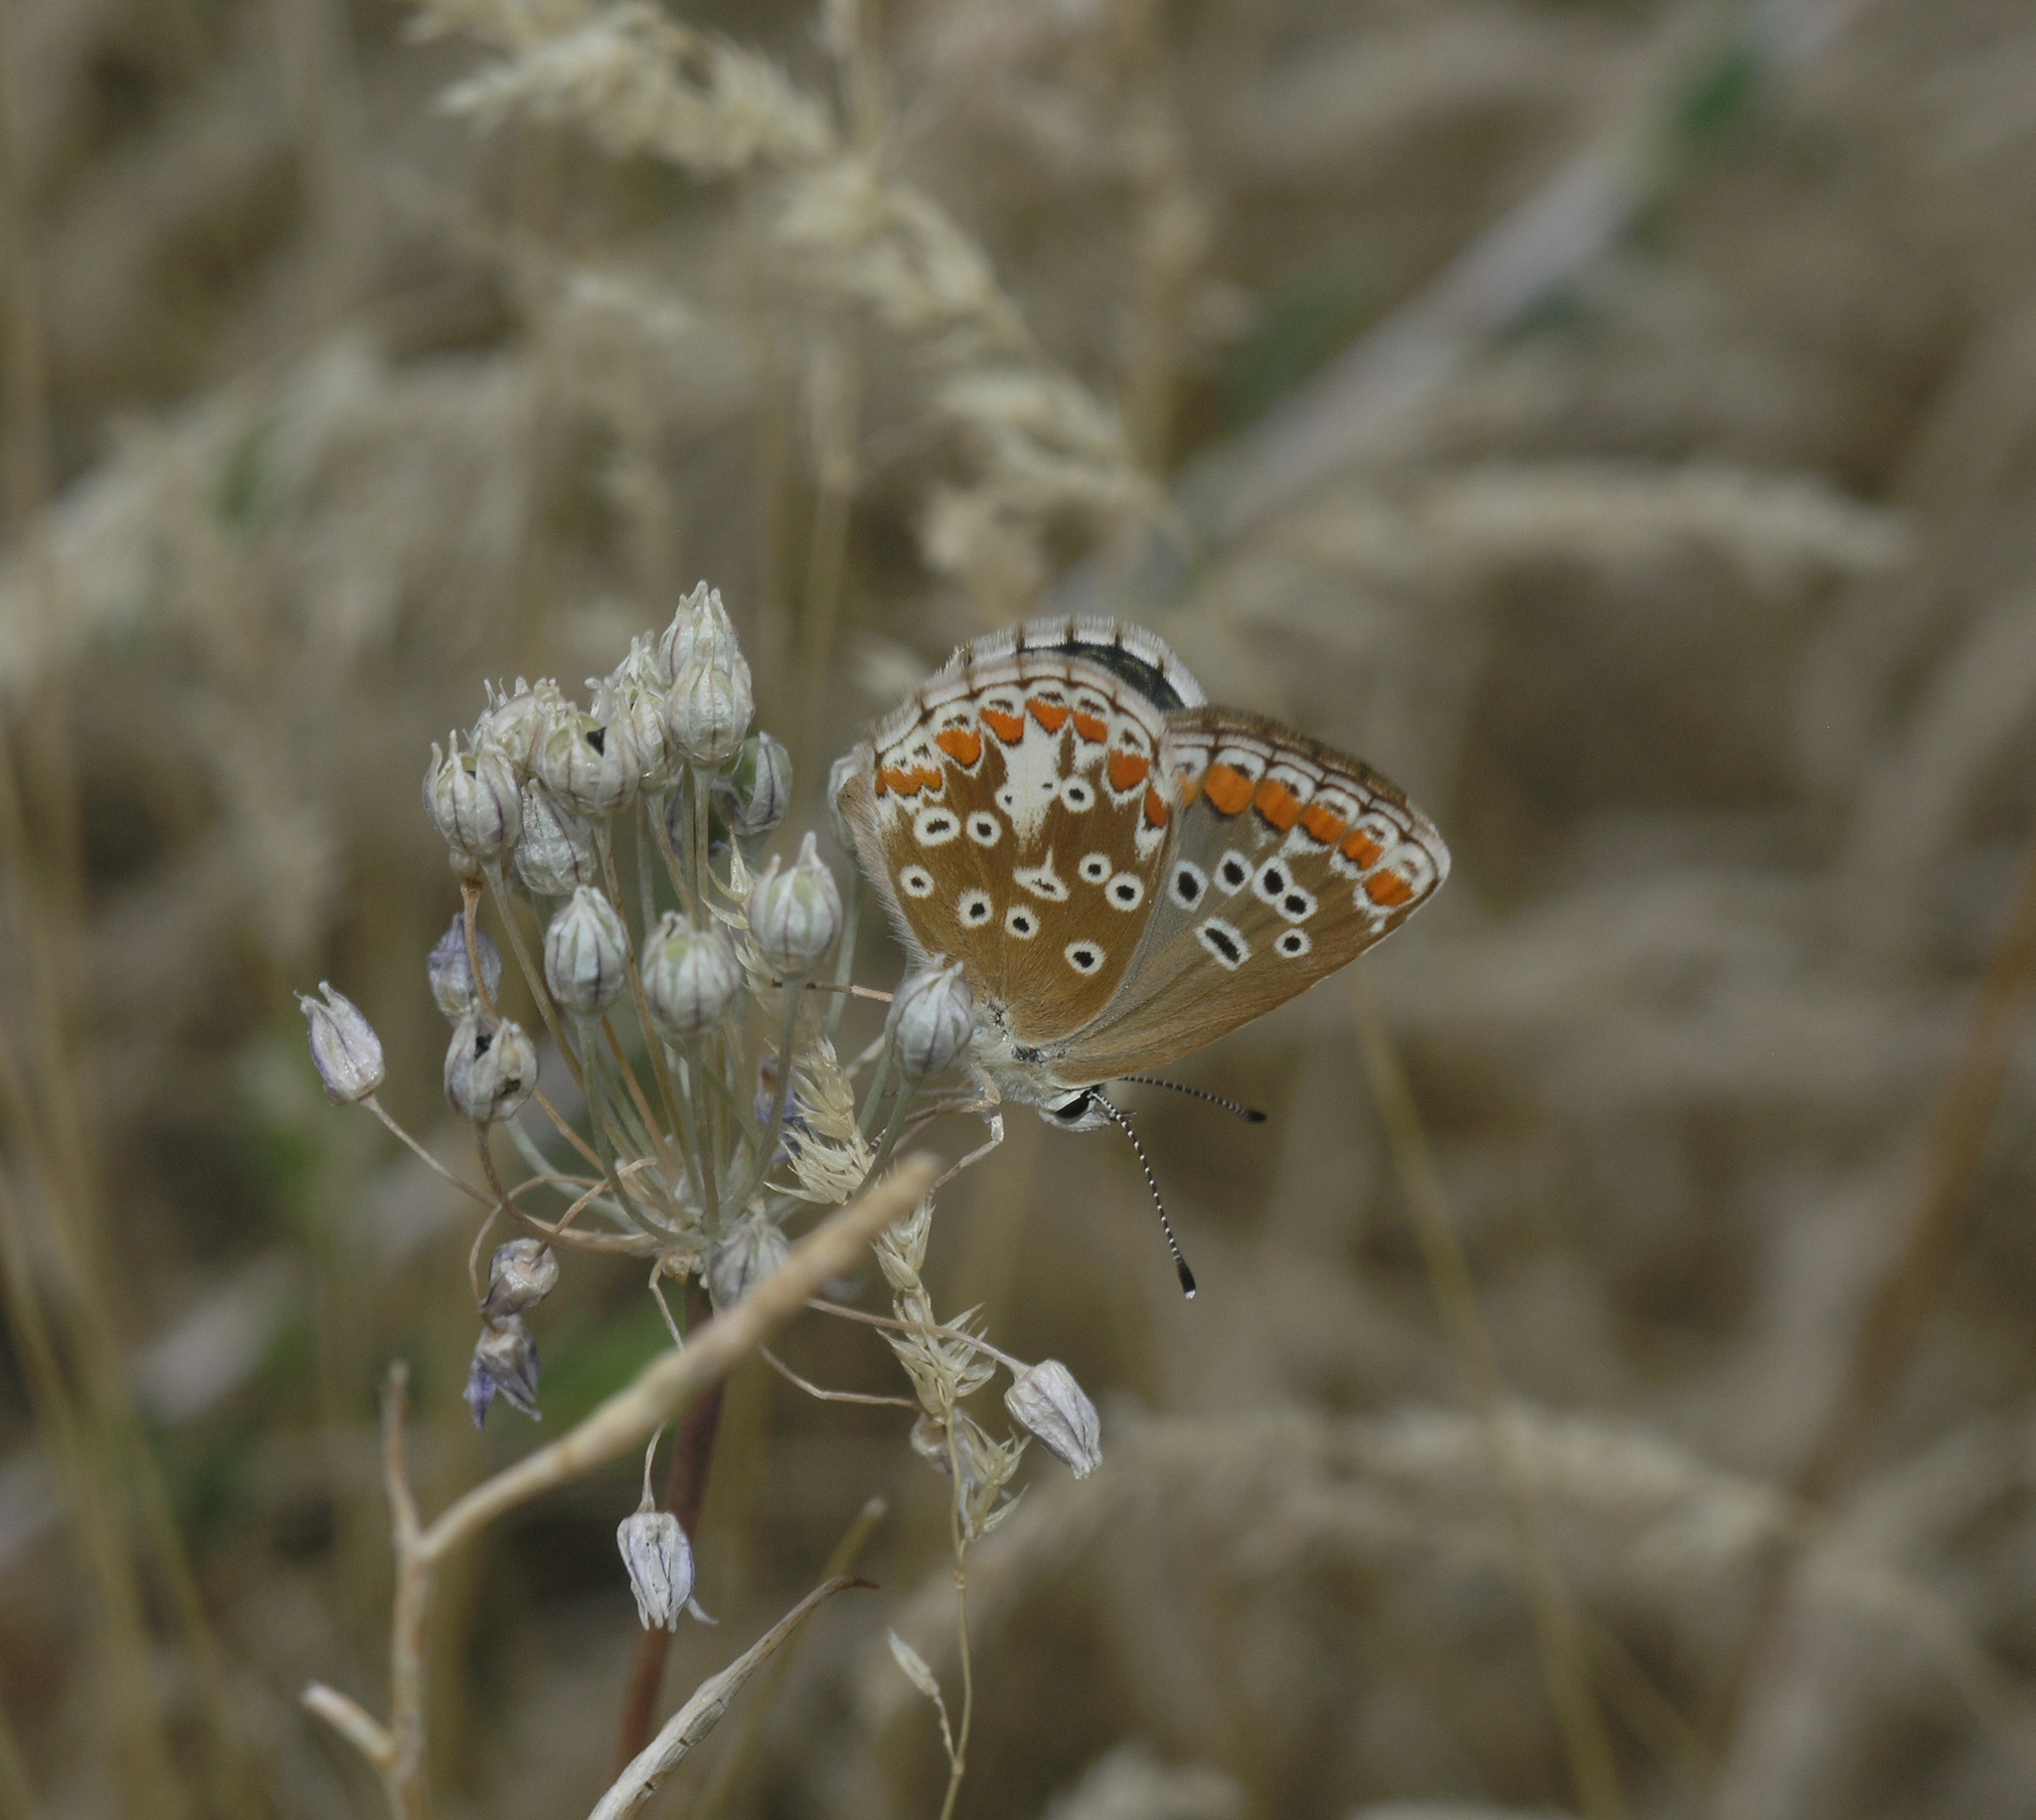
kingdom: Plantae
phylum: Tracheophyta
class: Liliopsida
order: Asparagales
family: Amaryllidaceae
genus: Allium
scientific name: Allium caesium
